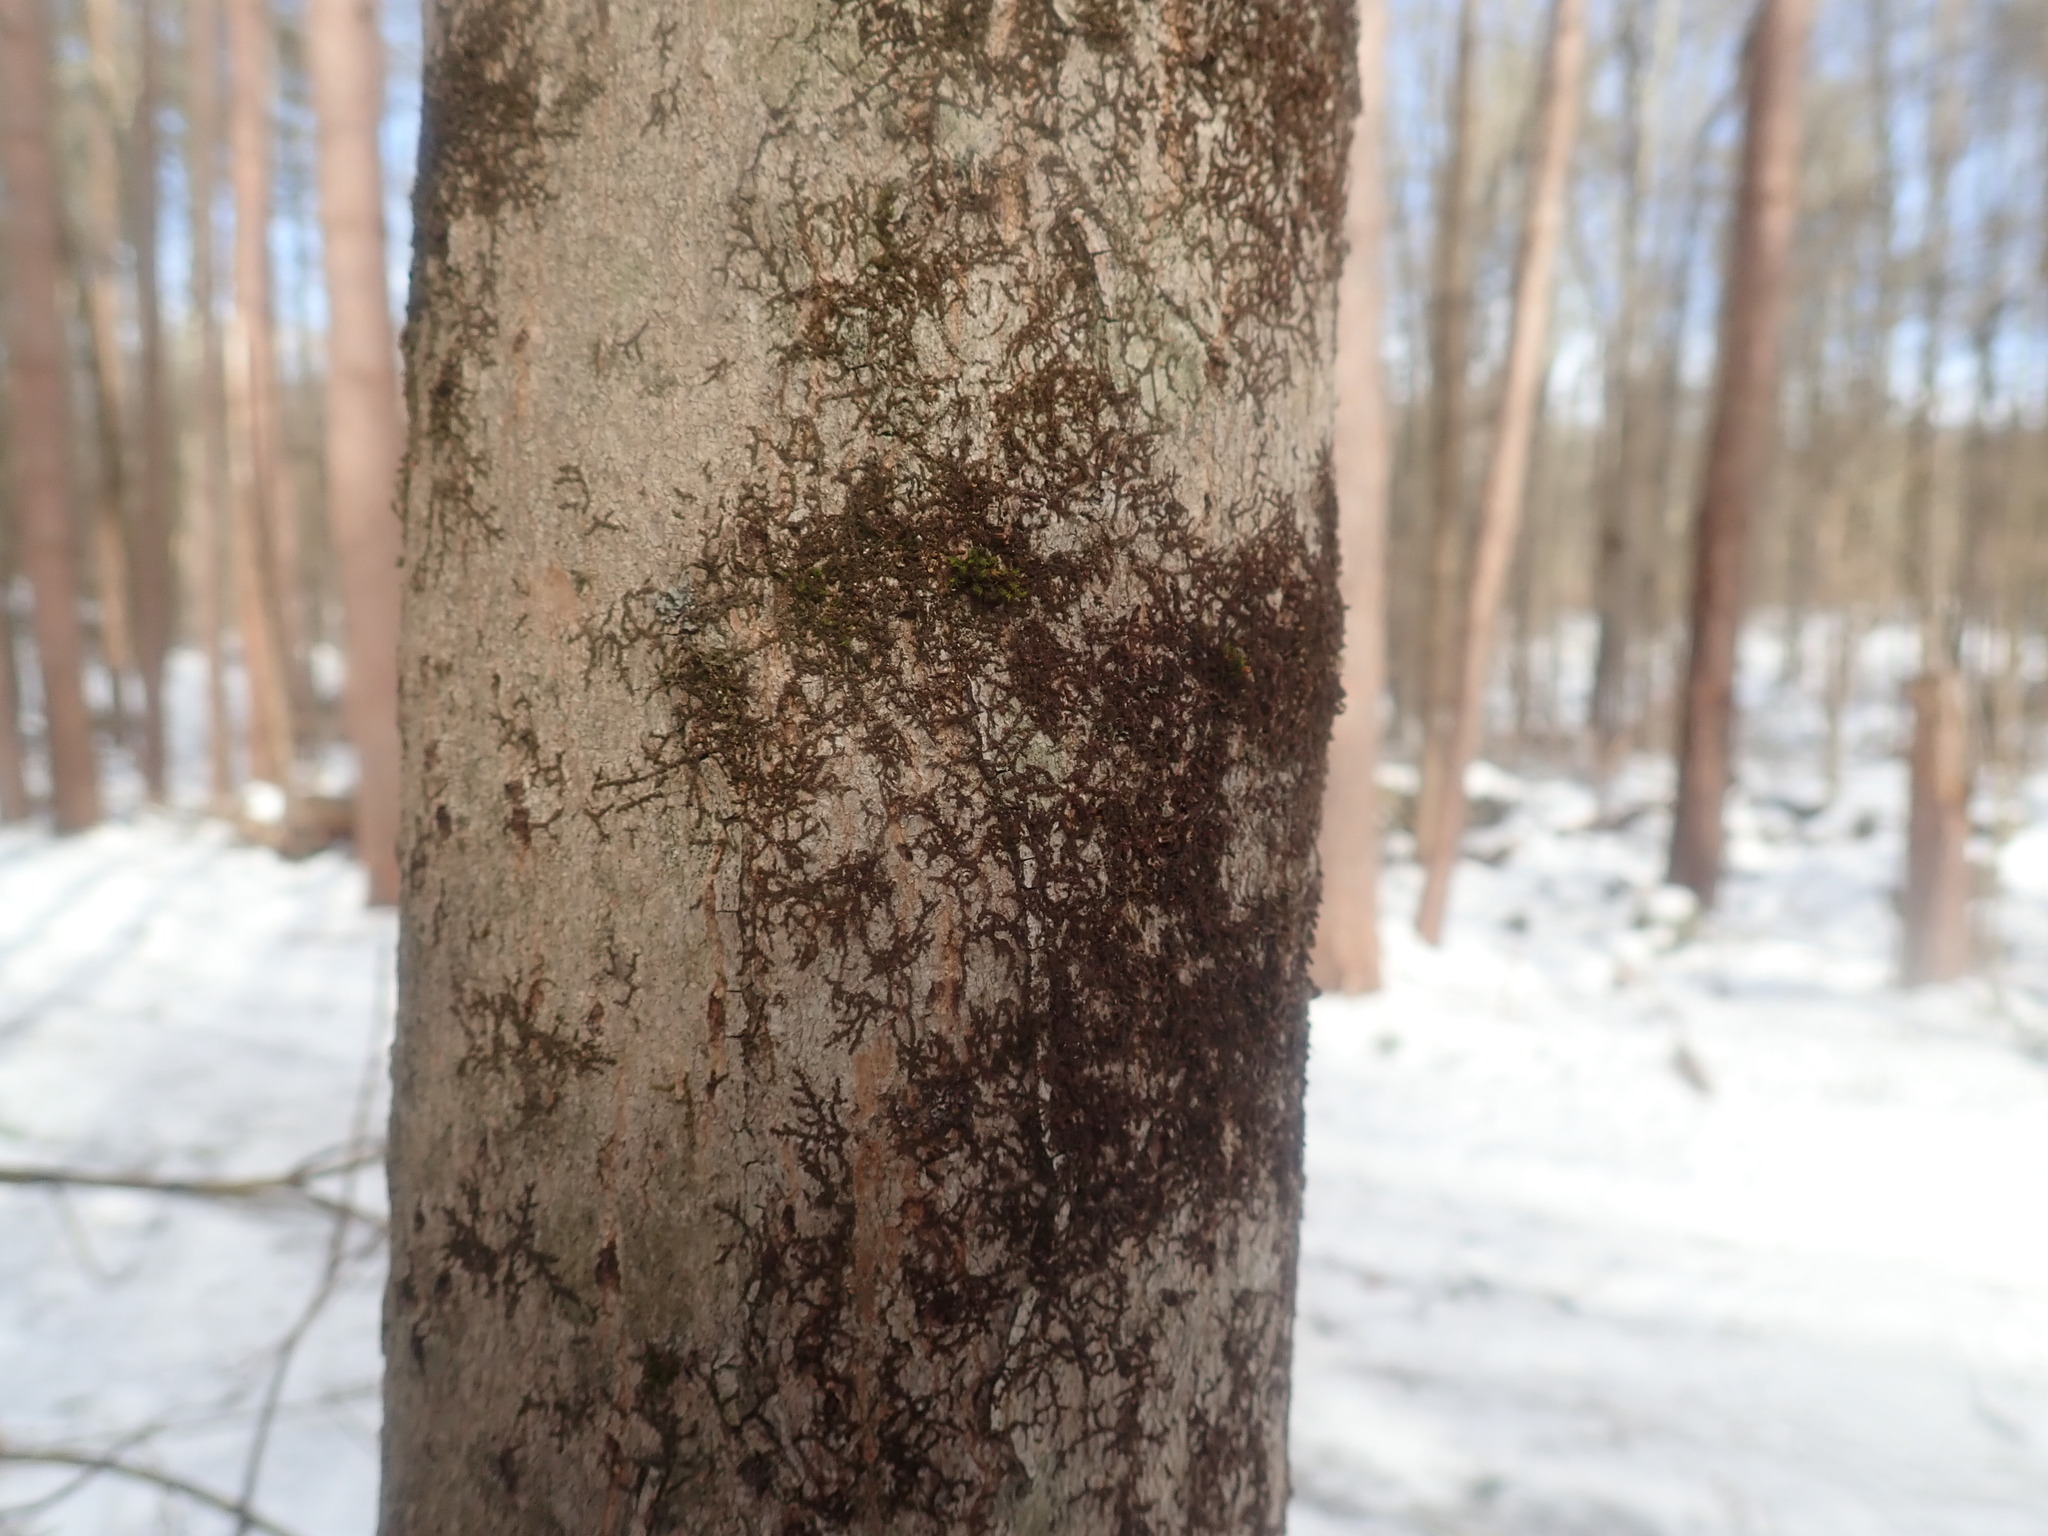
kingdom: Plantae
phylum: Marchantiophyta
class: Jungermanniopsida
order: Porellales
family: Frullaniaceae
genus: Frullania
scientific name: Frullania
